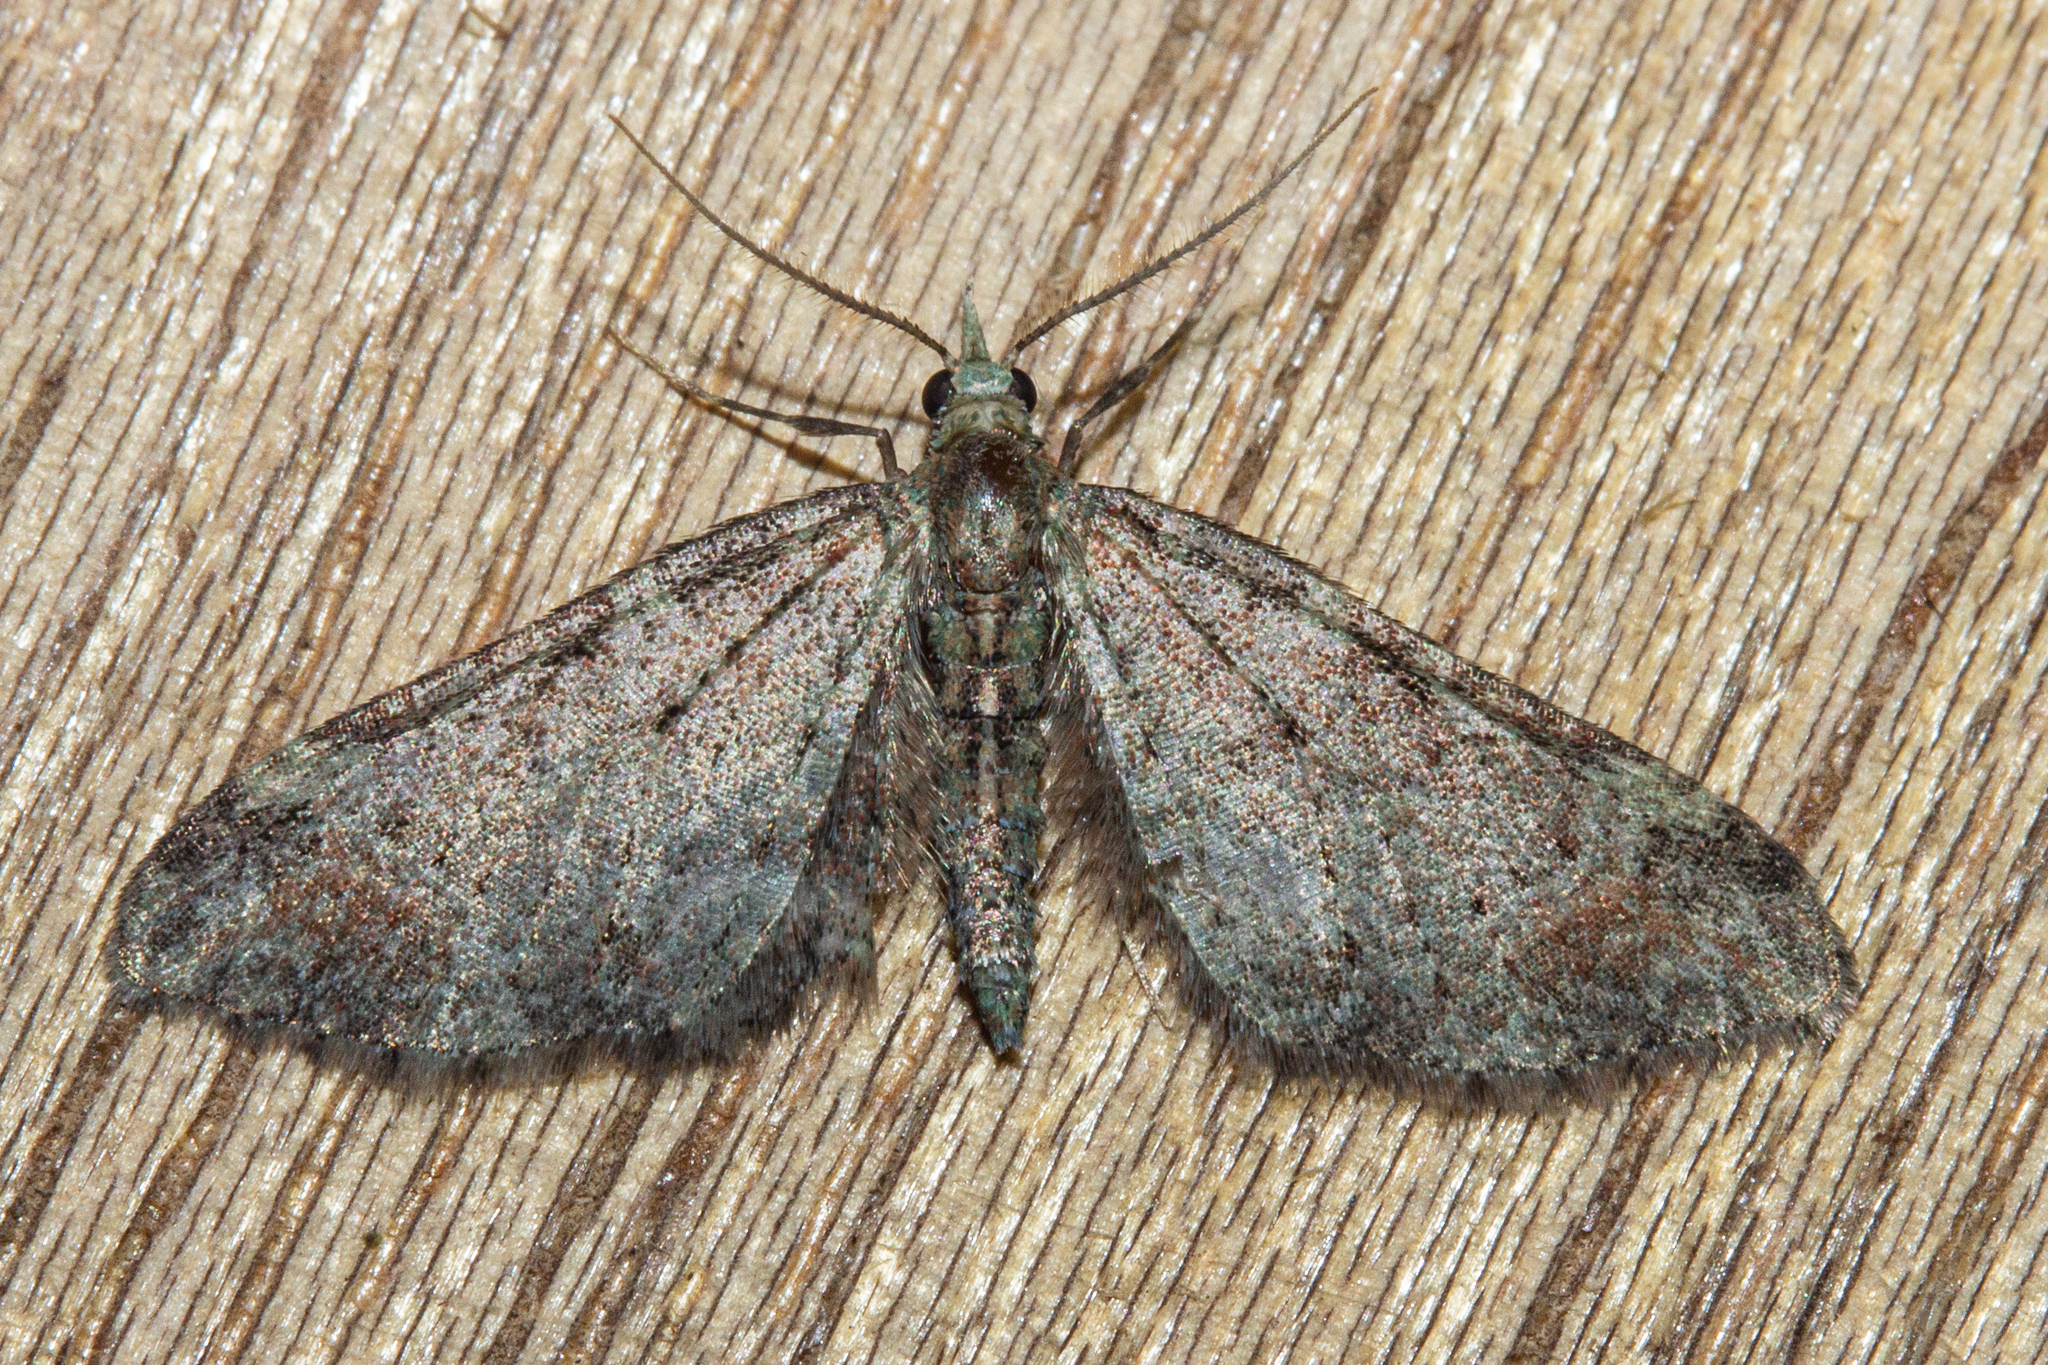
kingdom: Animalia
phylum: Arthropoda
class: Insecta
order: Lepidoptera
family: Geometridae
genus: Pasiphila
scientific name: Pasiphila plinthina
